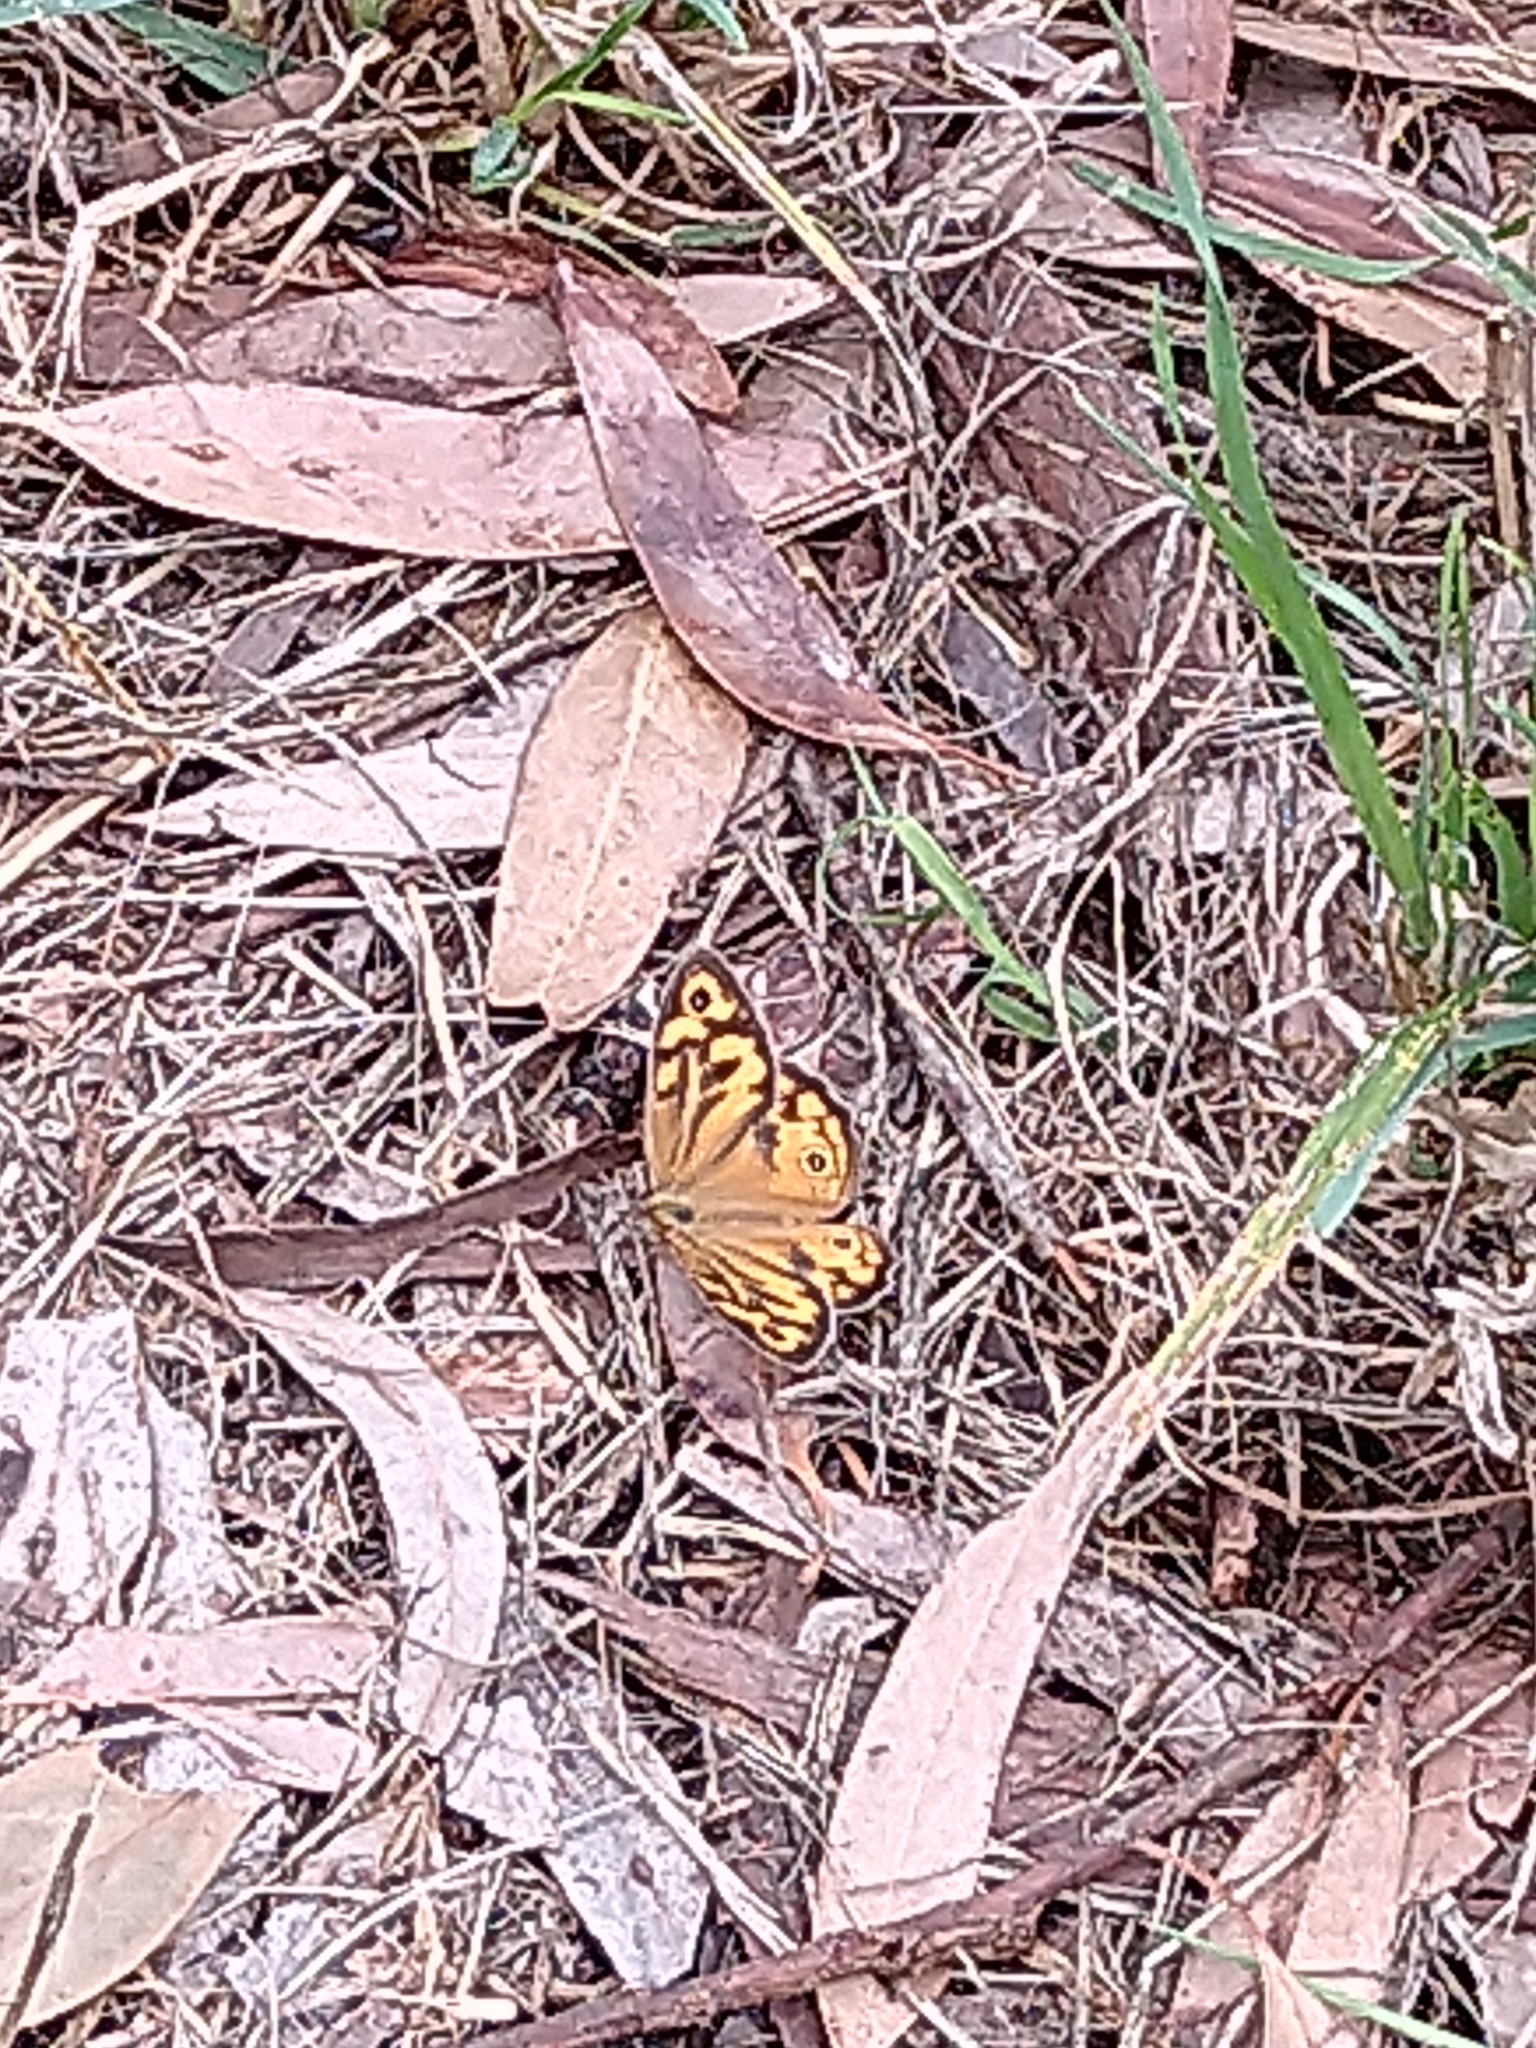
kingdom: Animalia
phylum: Arthropoda
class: Insecta
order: Lepidoptera
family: Nymphalidae
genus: Heteronympha
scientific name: Heteronympha merope
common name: Common brown
